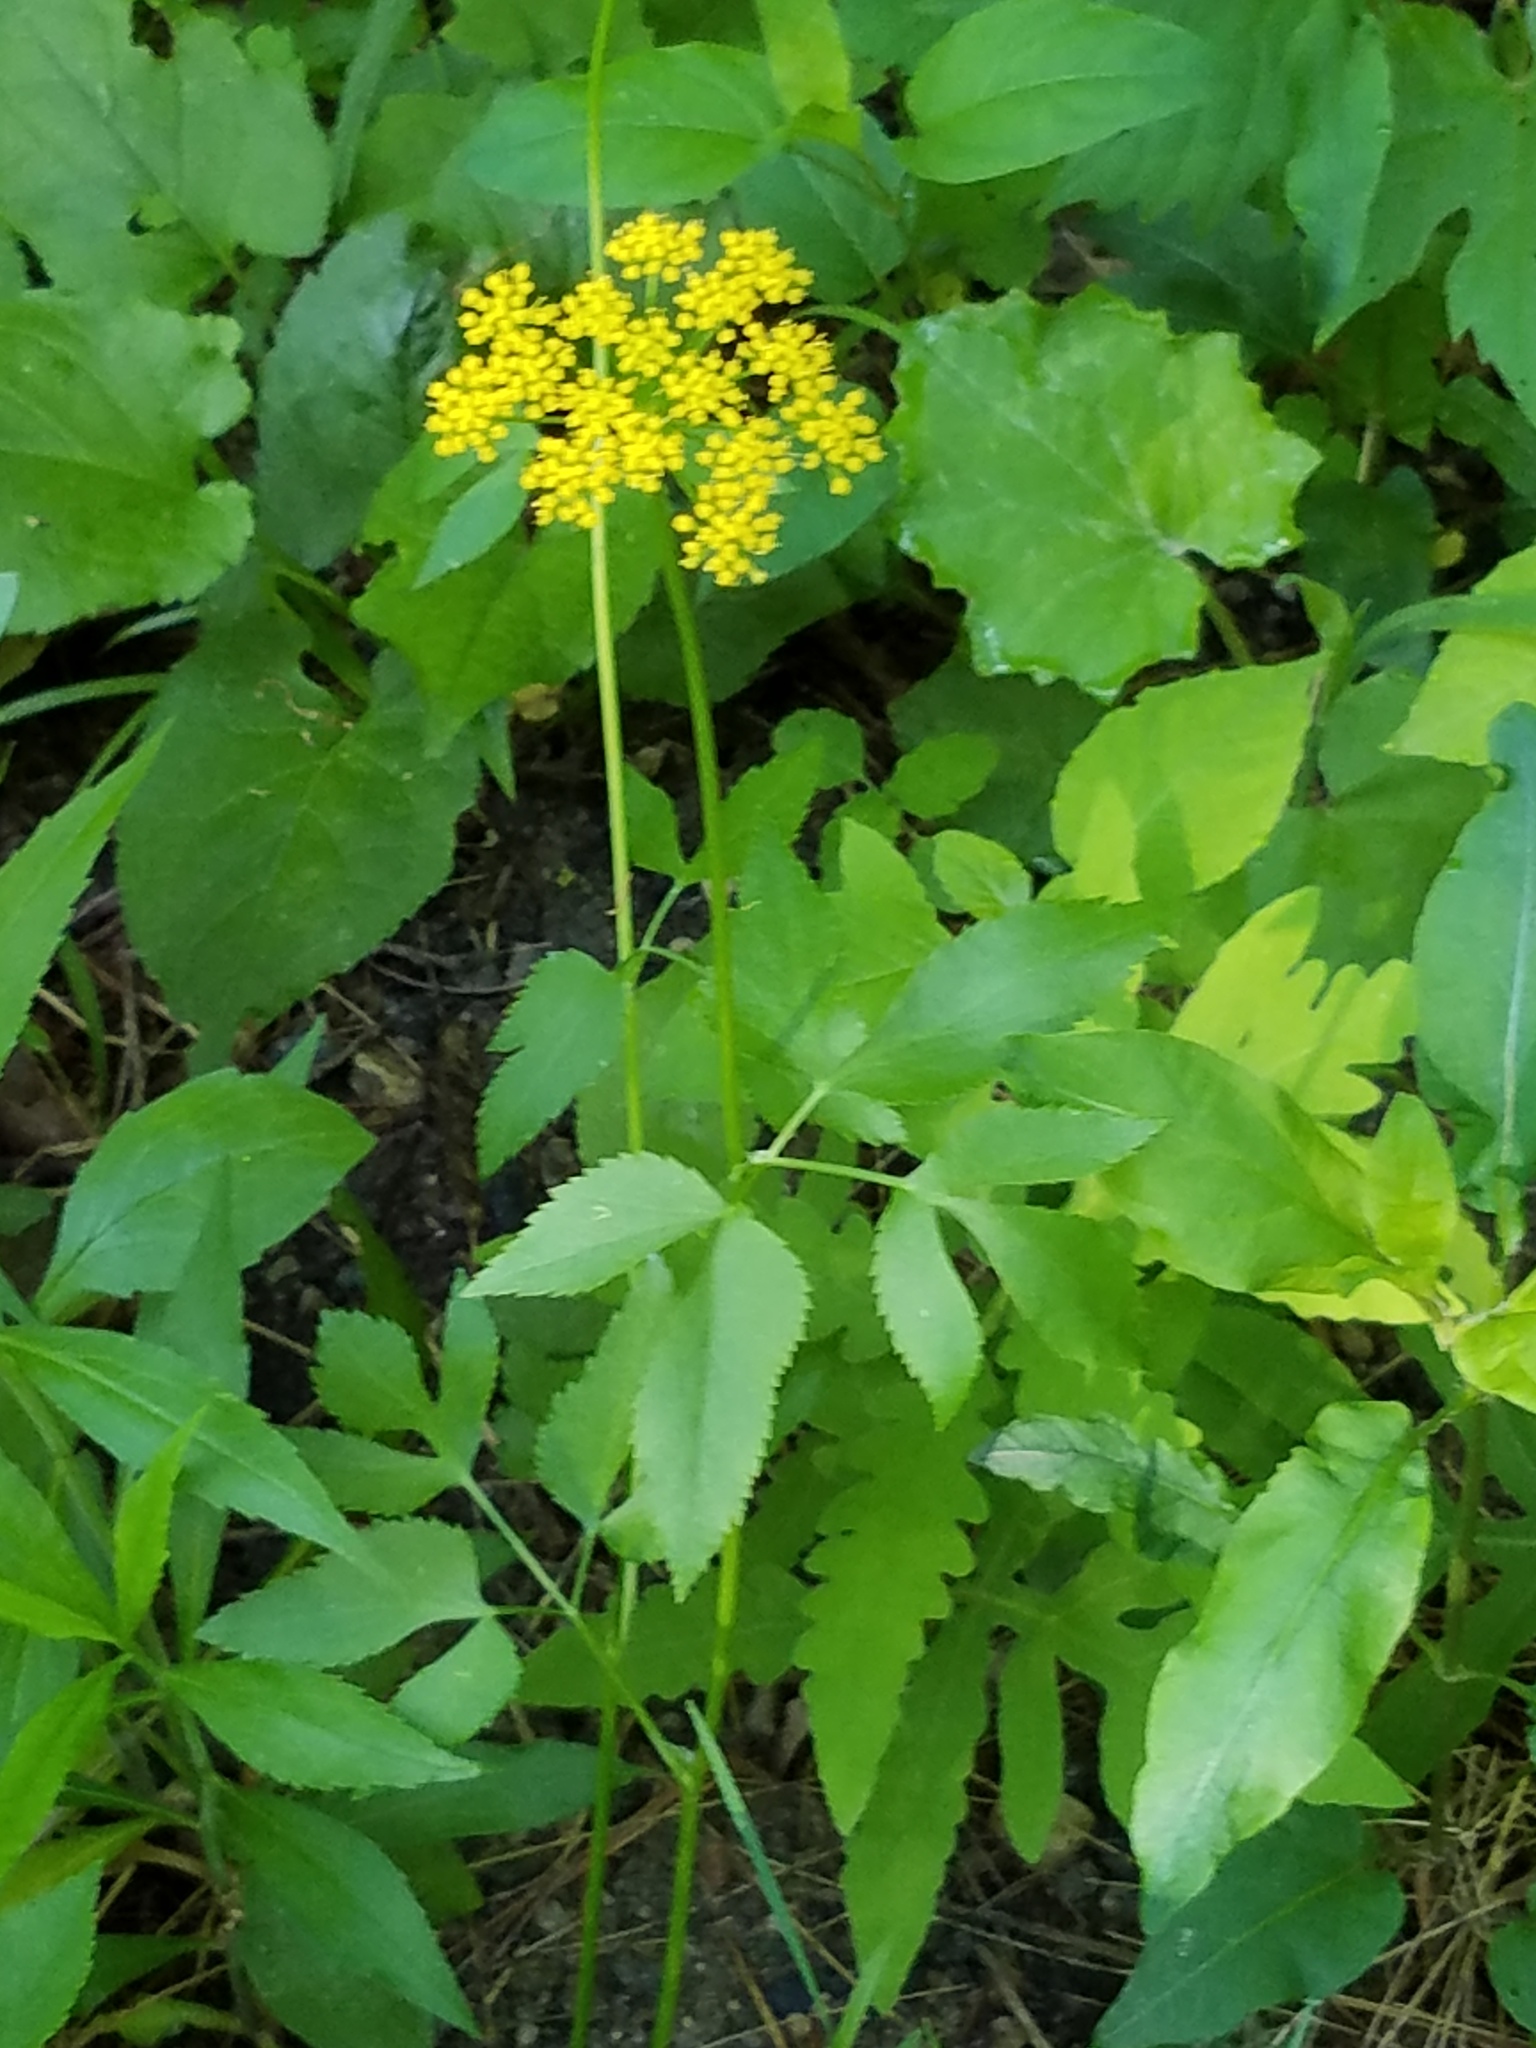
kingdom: Plantae
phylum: Tracheophyta
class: Magnoliopsida
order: Apiales
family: Apiaceae
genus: Zizia
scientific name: Zizia aurea
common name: Golden alexanders
